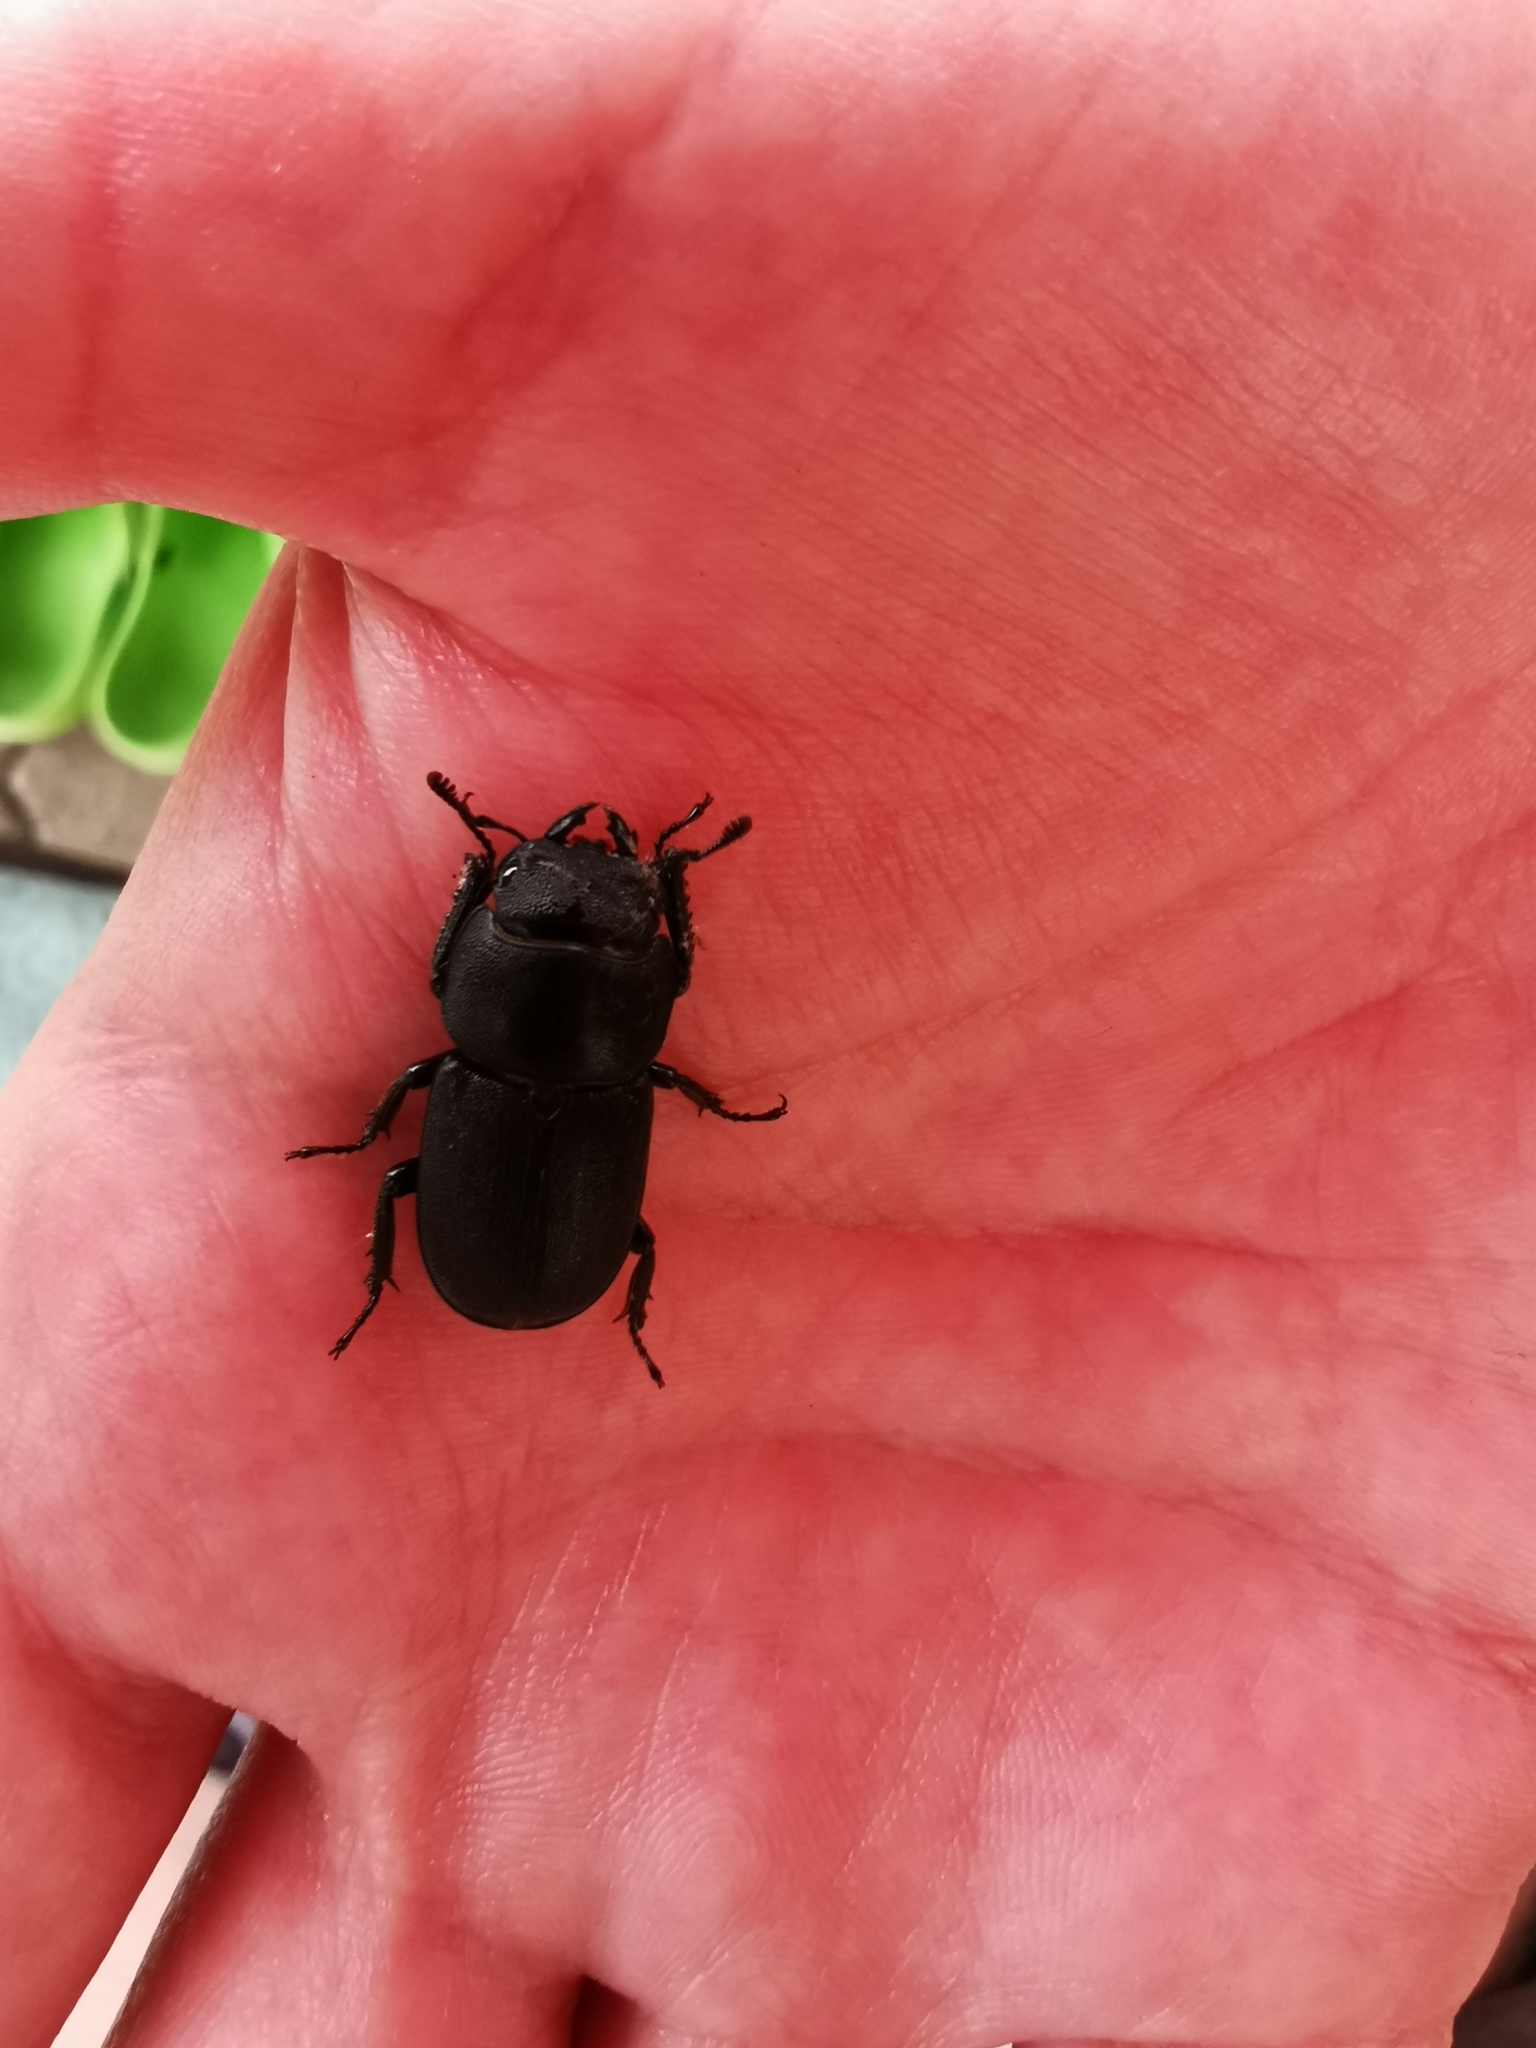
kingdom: Animalia
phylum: Arthropoda
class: Insecta
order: Coleoptera
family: Lucanidae
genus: Dorcus
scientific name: Dorcus parallelipipedus
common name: Lesser stag beetle
